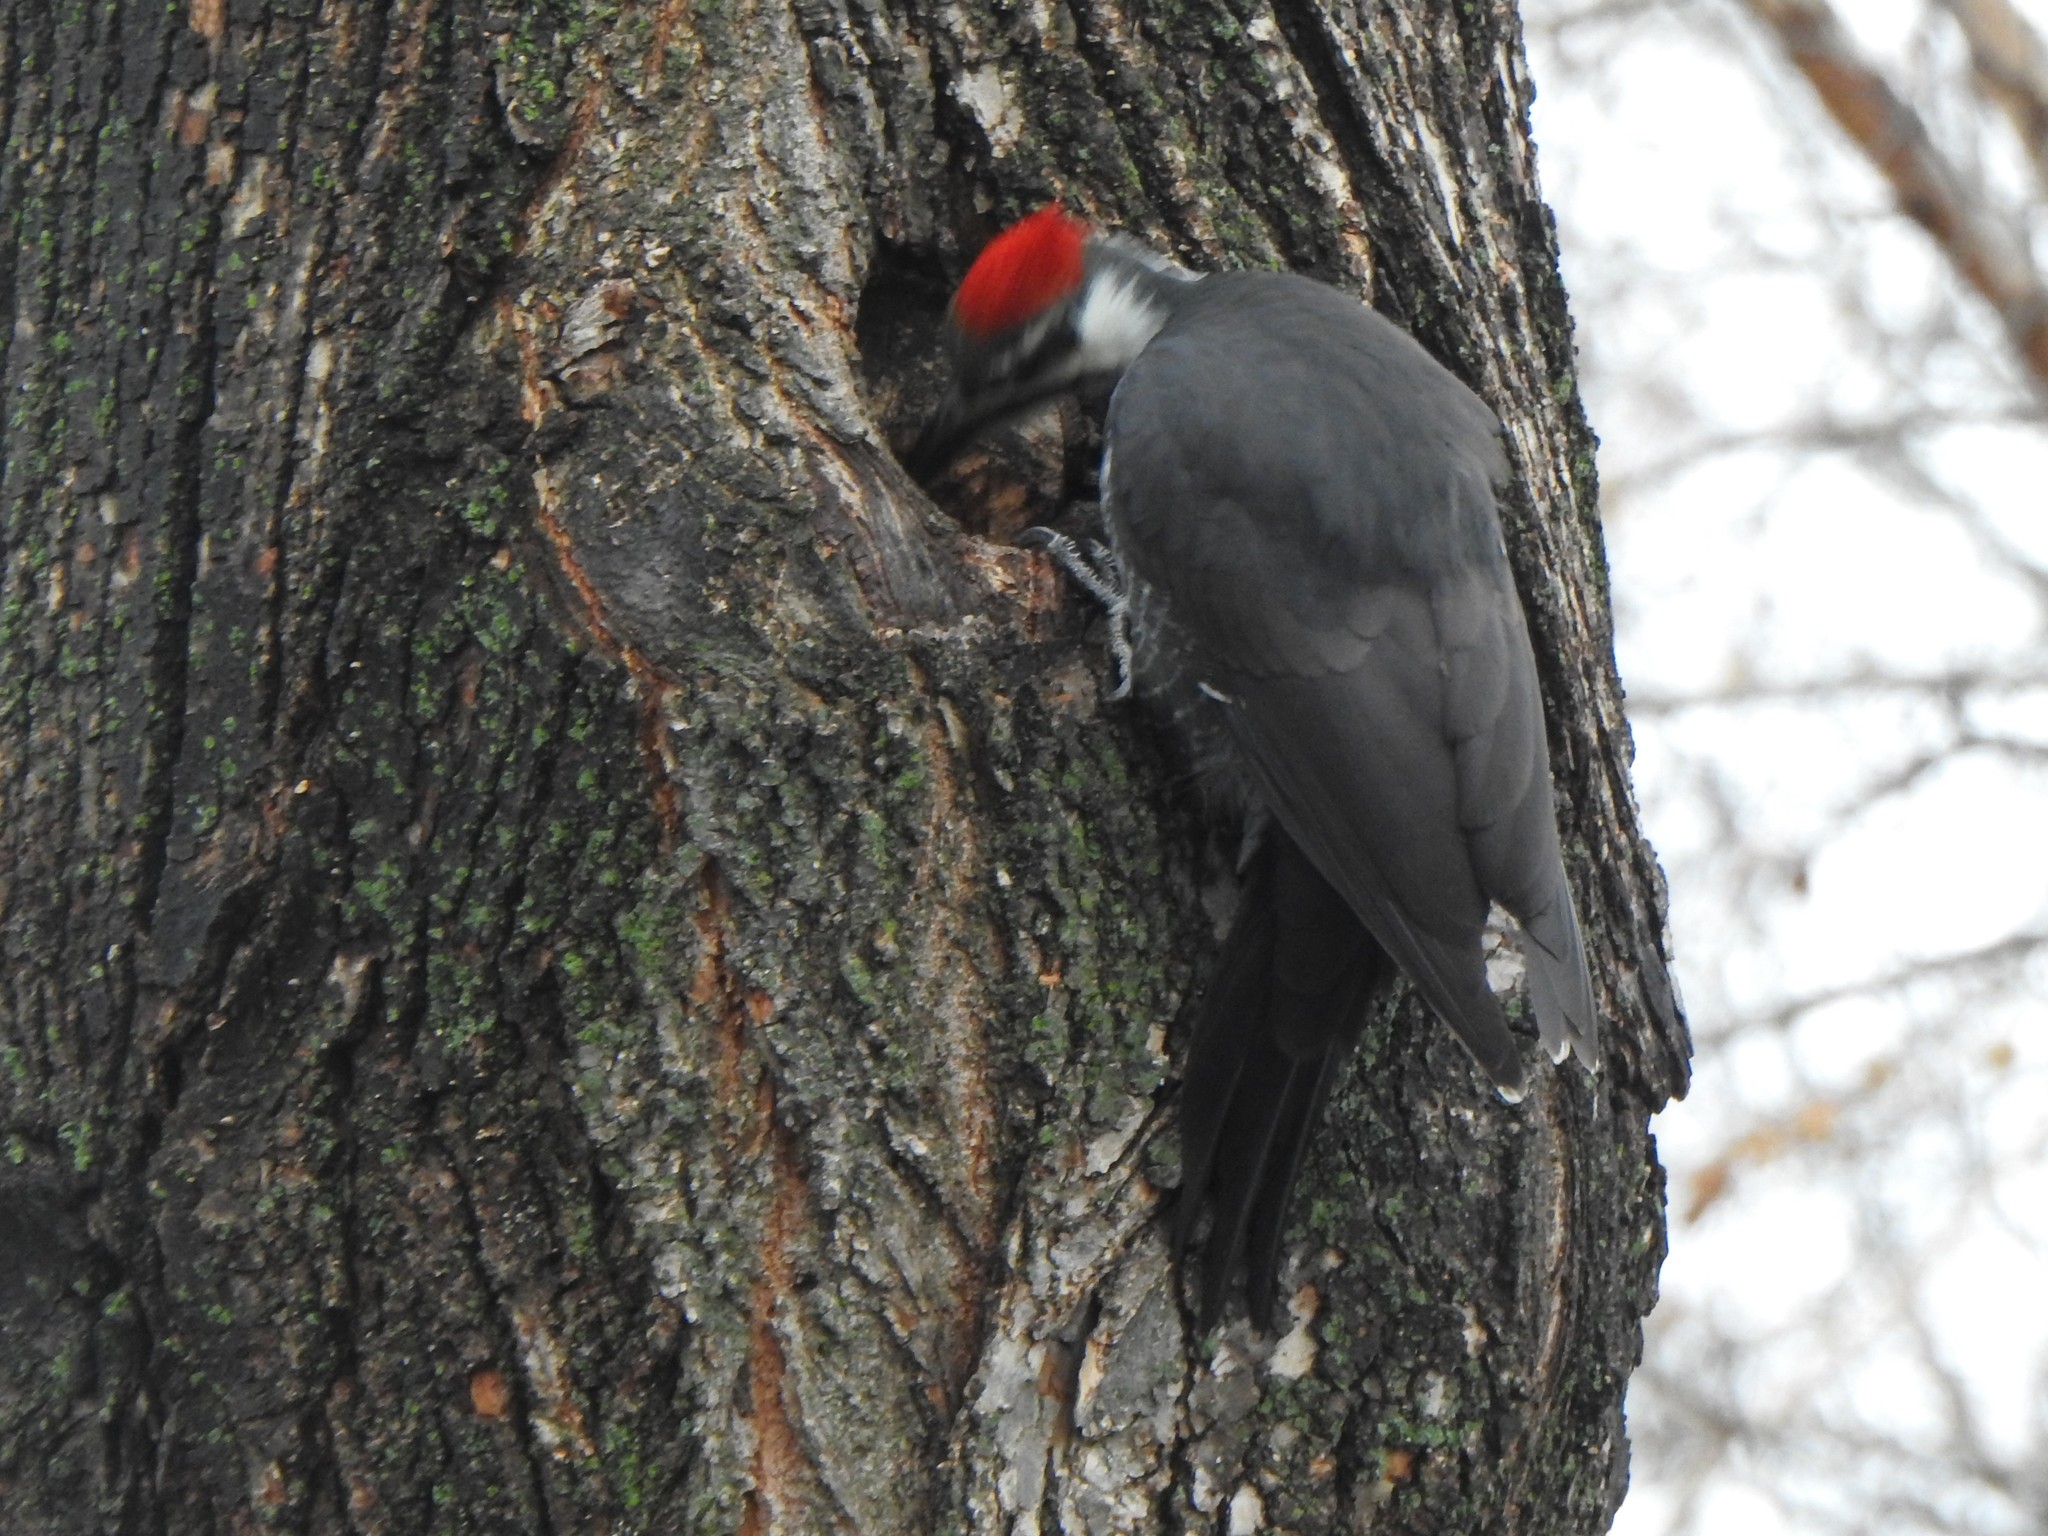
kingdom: Animalia
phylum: Chordata
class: Aves
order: Piciformes
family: Picidae
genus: Dryocopus
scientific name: Dryocopus pileatus
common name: Pileated woodpecker
